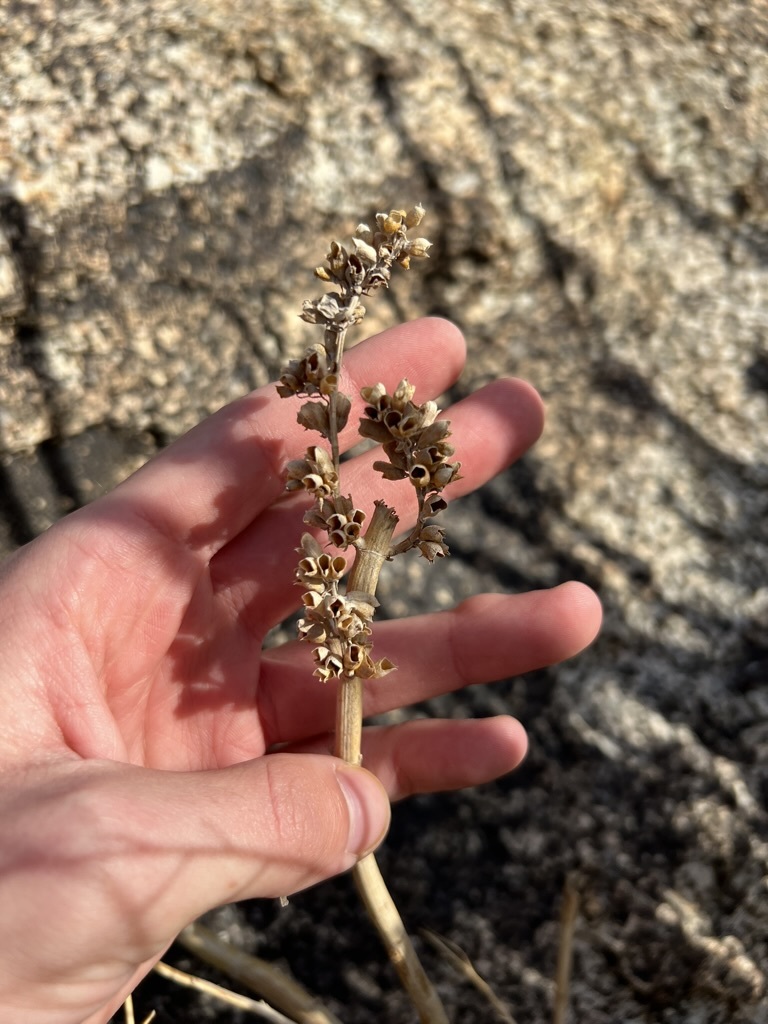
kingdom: Plantae
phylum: Tracheophyta
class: Magnoliopsida
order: Lamiales
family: Lamiaceae
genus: Salvia
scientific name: Salvia apiana
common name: White sage
